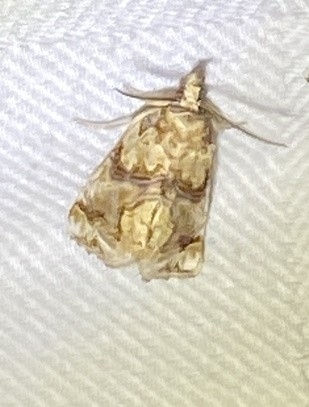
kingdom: Animalia
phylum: Arthropoda
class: Insecta
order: Lepidoptera
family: Erebidae
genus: Plusiodonta
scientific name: Plusiodonta compressipalpis
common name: Moonseed moth
